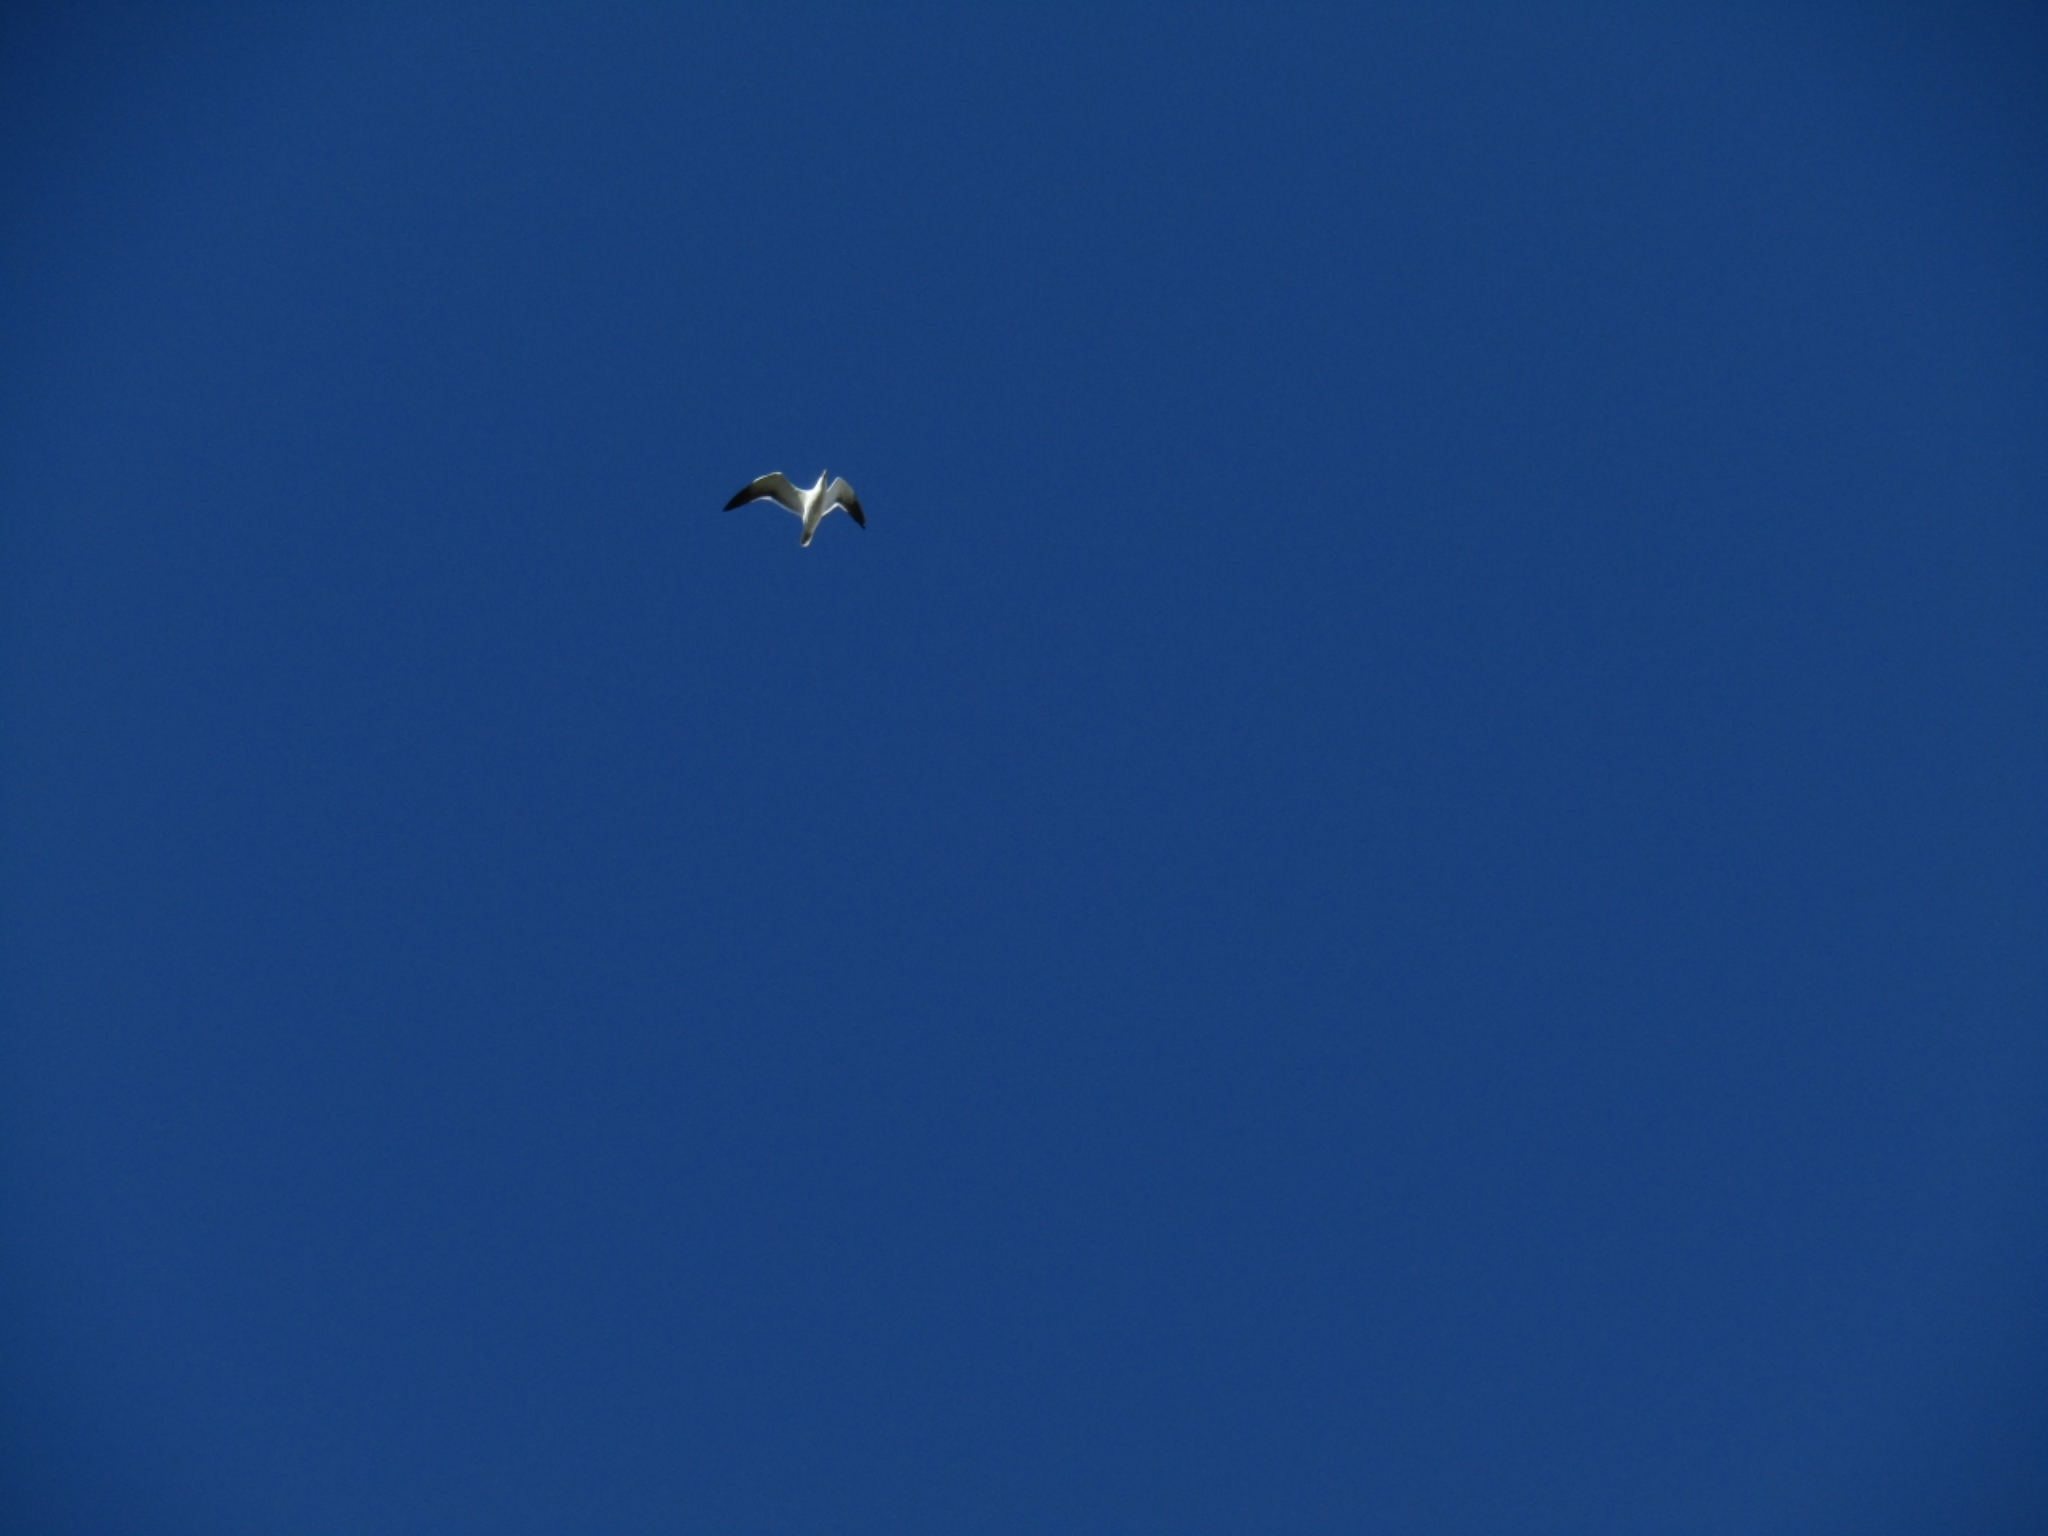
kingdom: Animalia
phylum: Chordata
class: Aves
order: Charadriiformes
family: Laridae
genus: Larus
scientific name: Larus dominicanus
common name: Kelp gull
